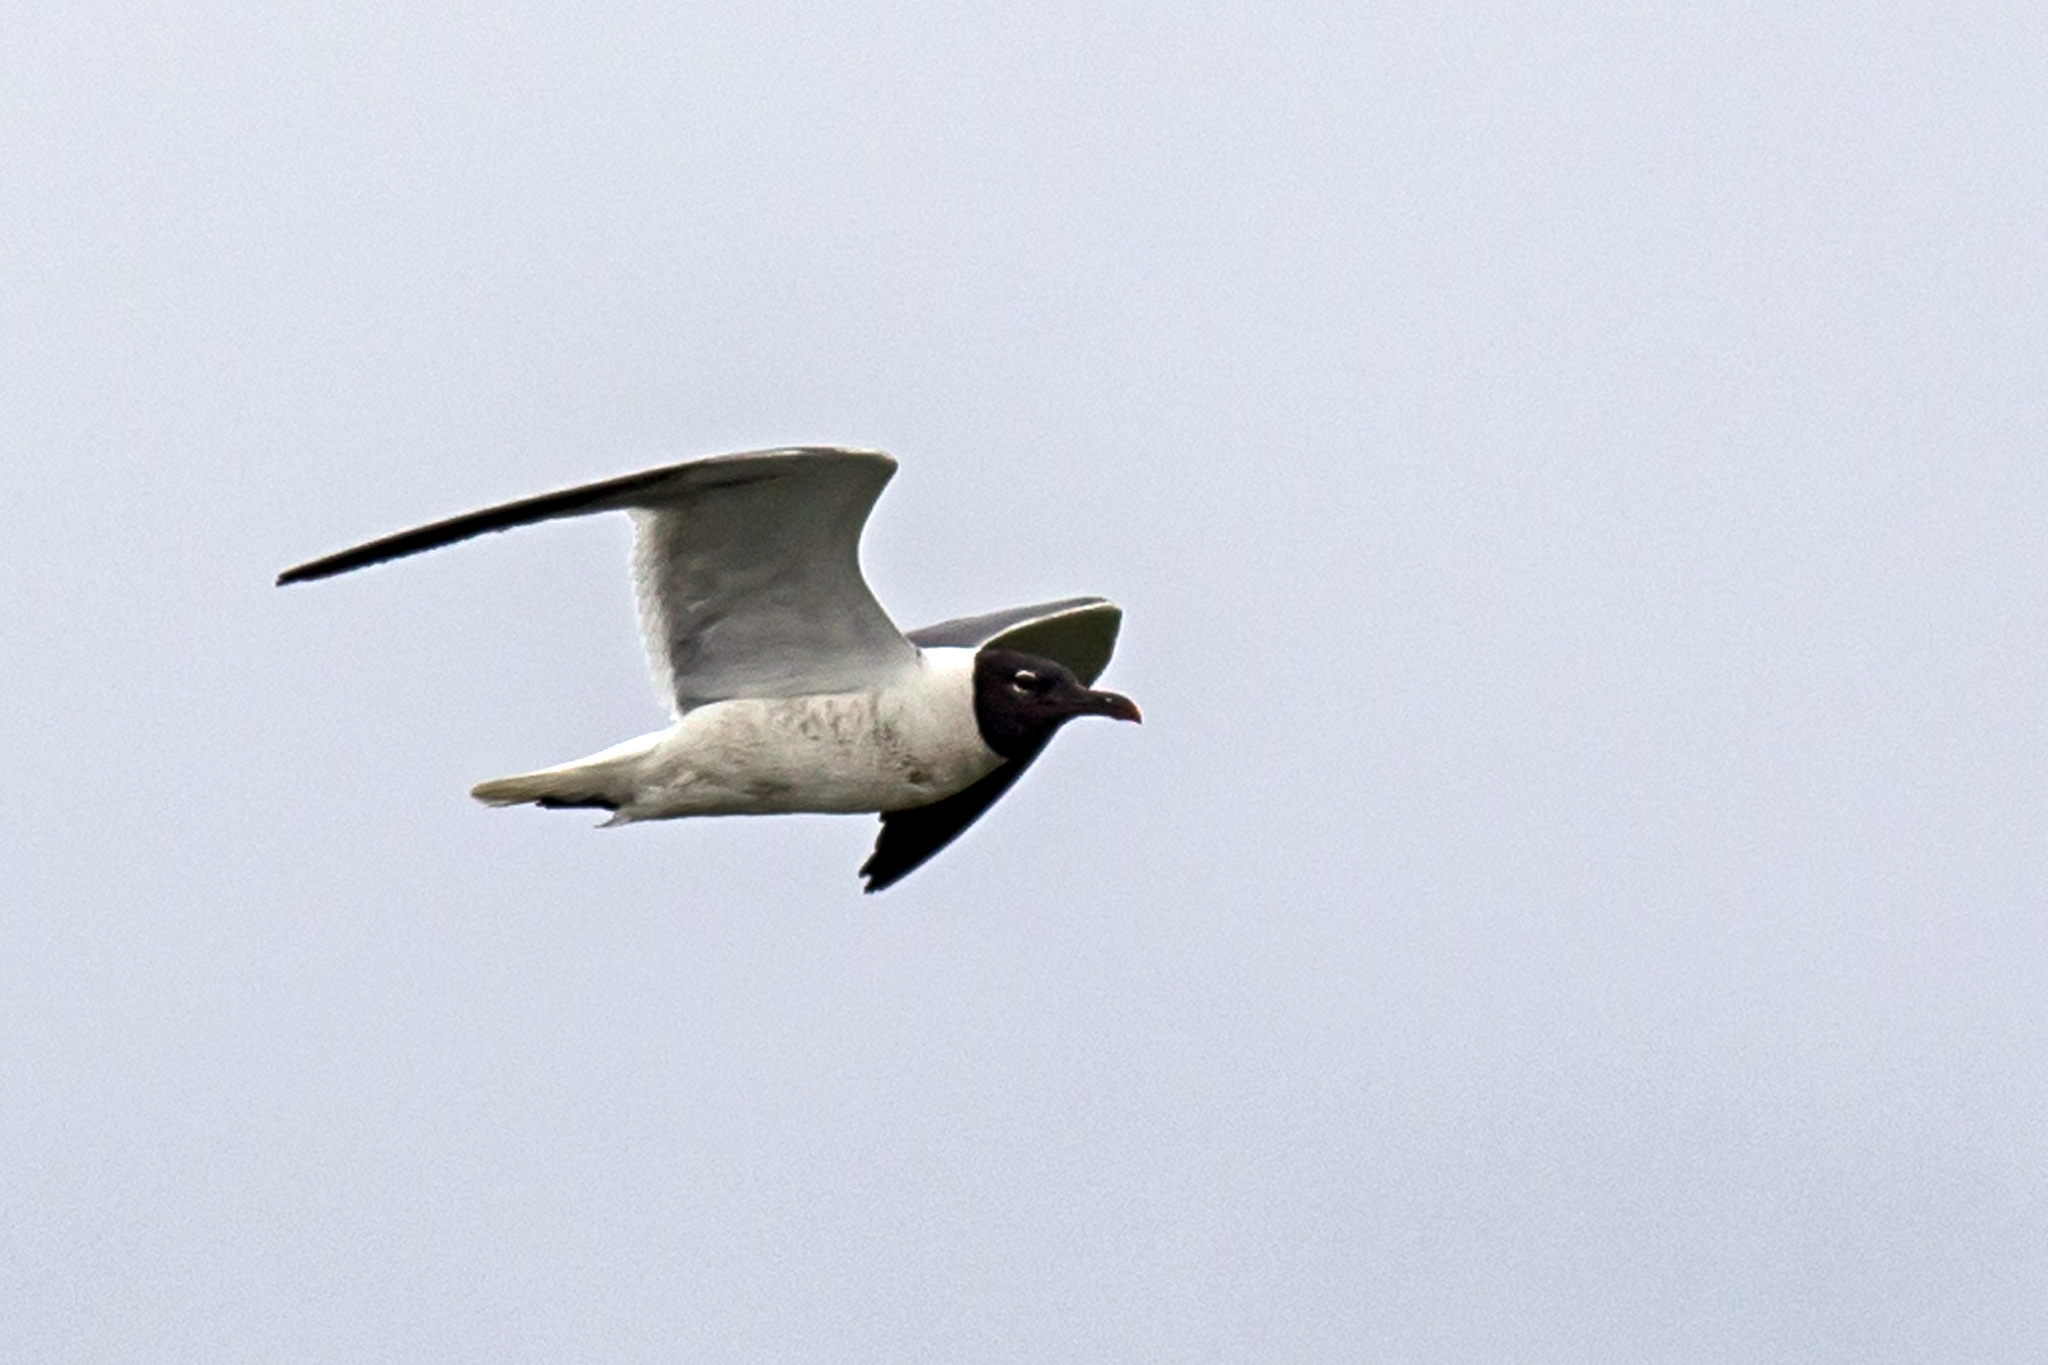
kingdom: Animalia
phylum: Chordata
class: Aves
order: Charadriiformes
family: Laridae
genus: Leucophaeus
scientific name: Leucophaeus atricilla
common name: Laughing gull
